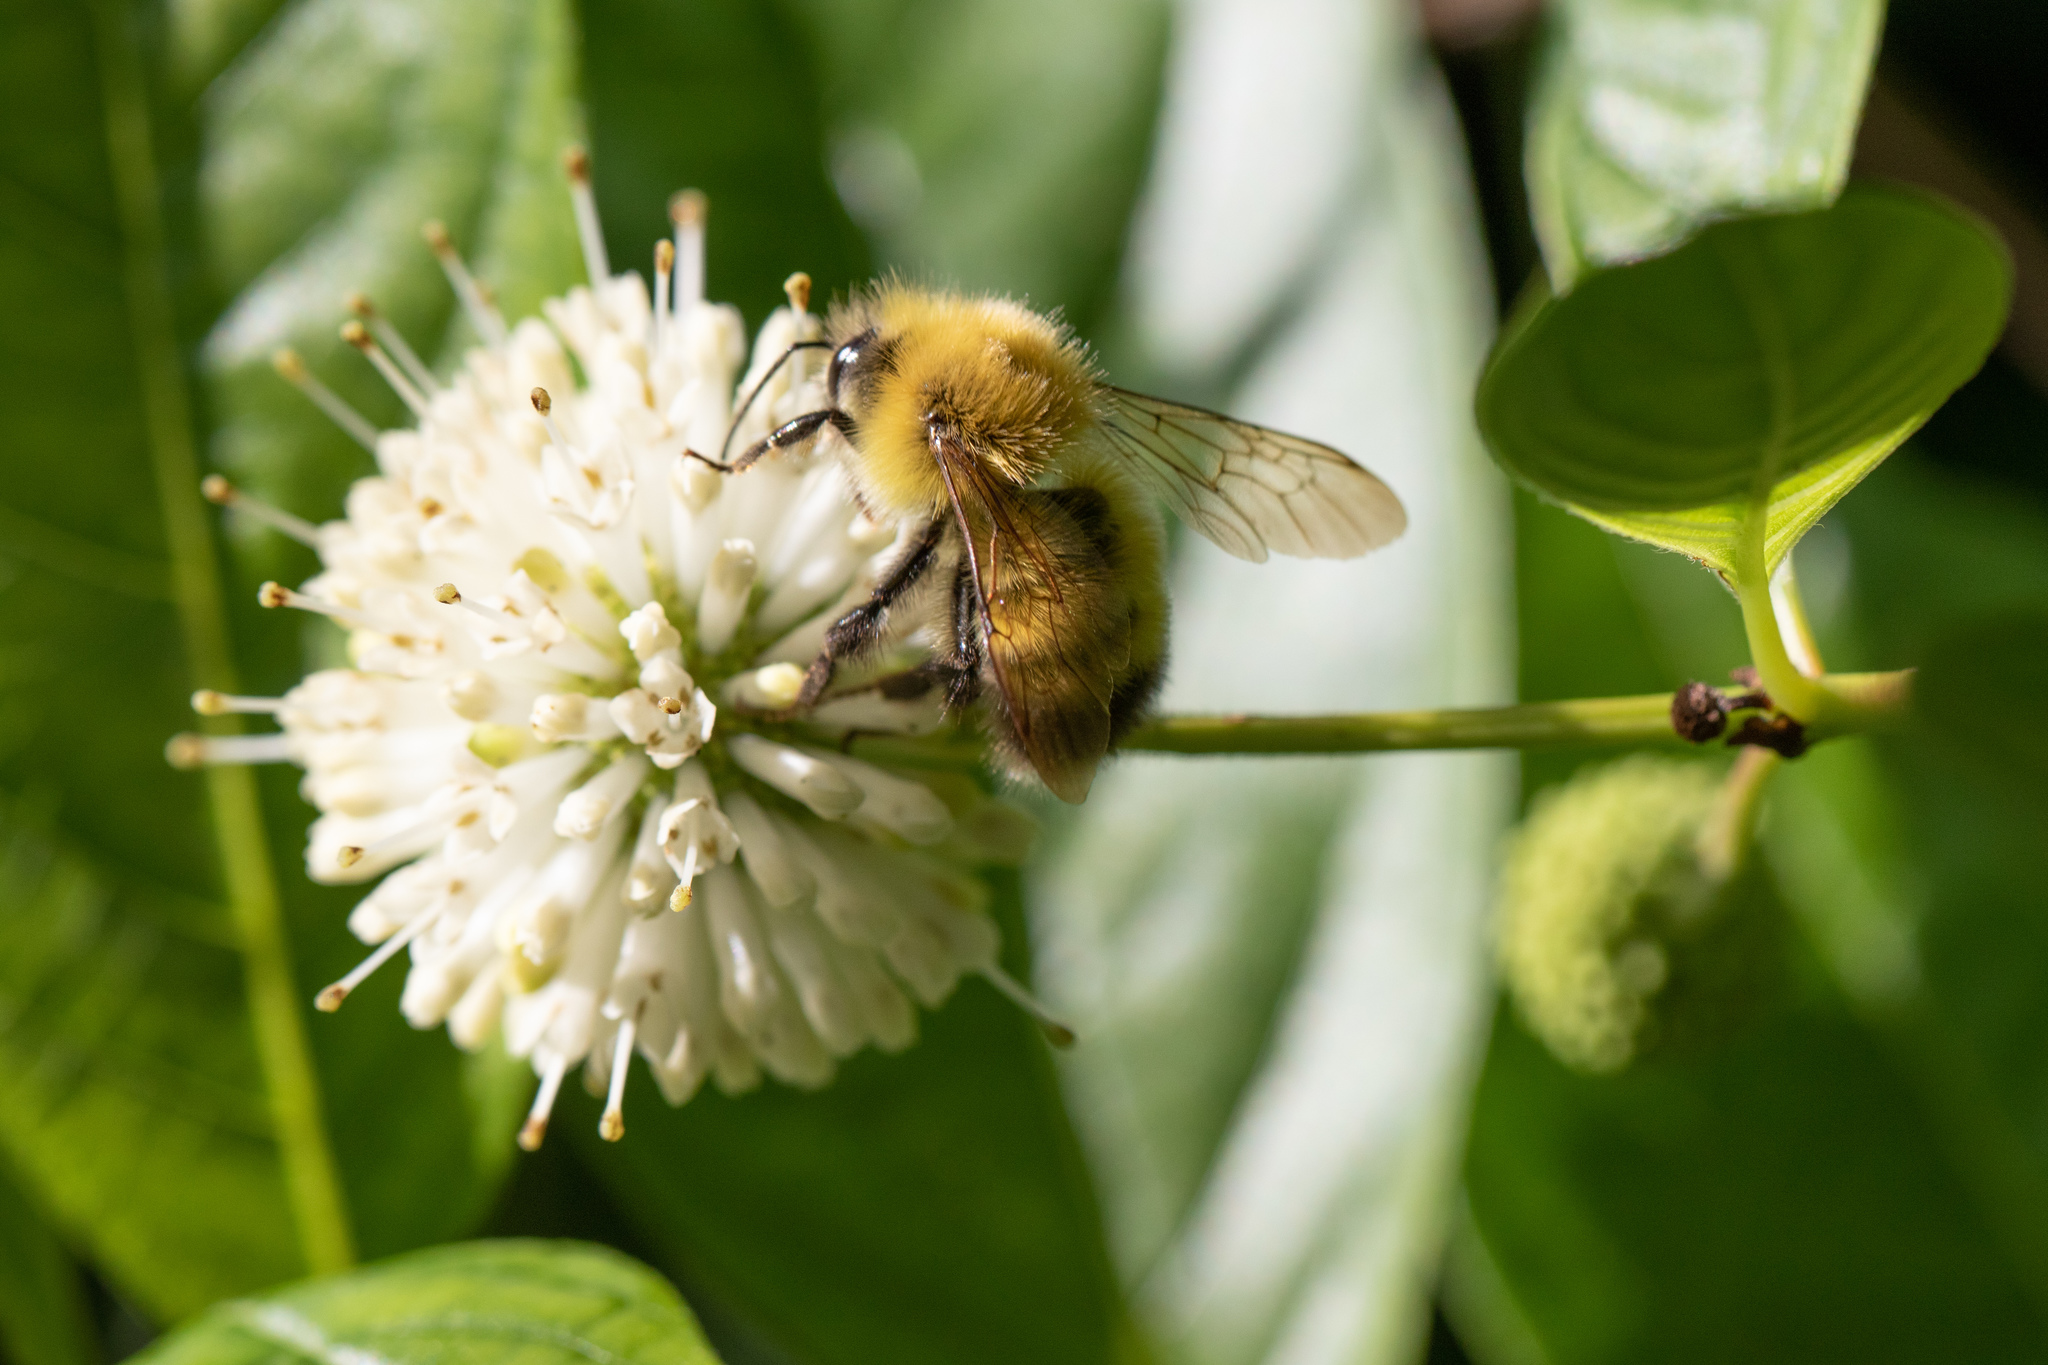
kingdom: Animalia
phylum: Arthropoda
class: Insecta
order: Hymenoptera
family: Apidae
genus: Bombus
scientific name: Bombus perplexus
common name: Confusing bumble bee
